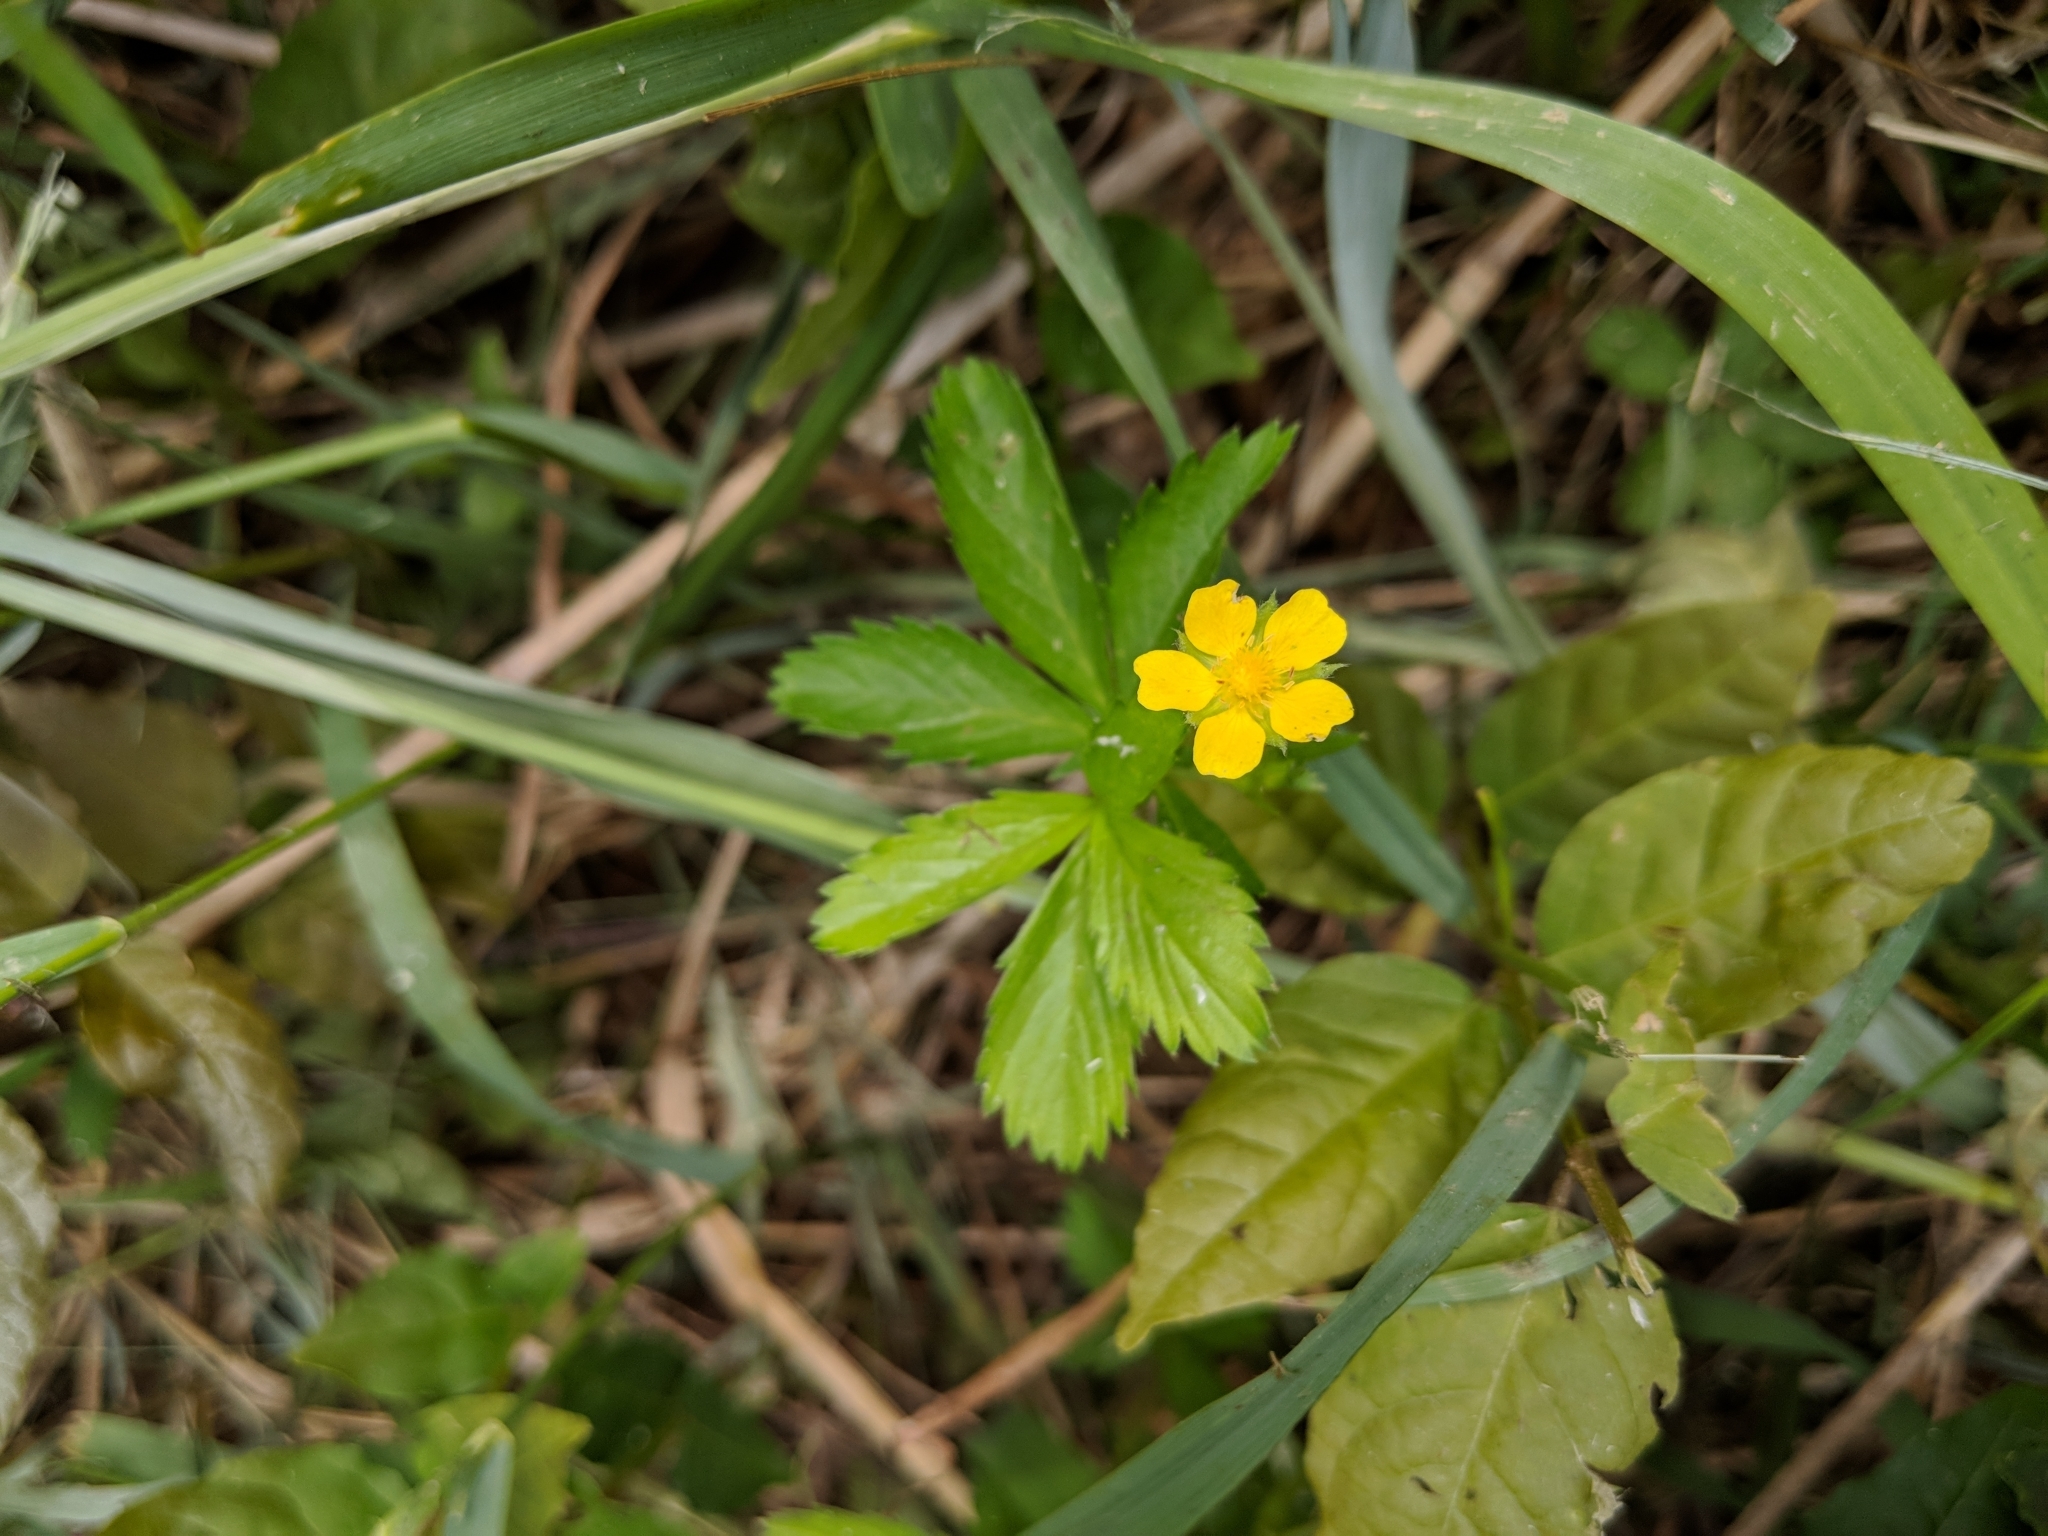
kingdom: Plantae
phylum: Tracheophyta
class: Magnoliopsida
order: Rosales
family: Rosaceae
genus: Potentilla
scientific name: Potentilla simplex
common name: Old field cinquefoil
